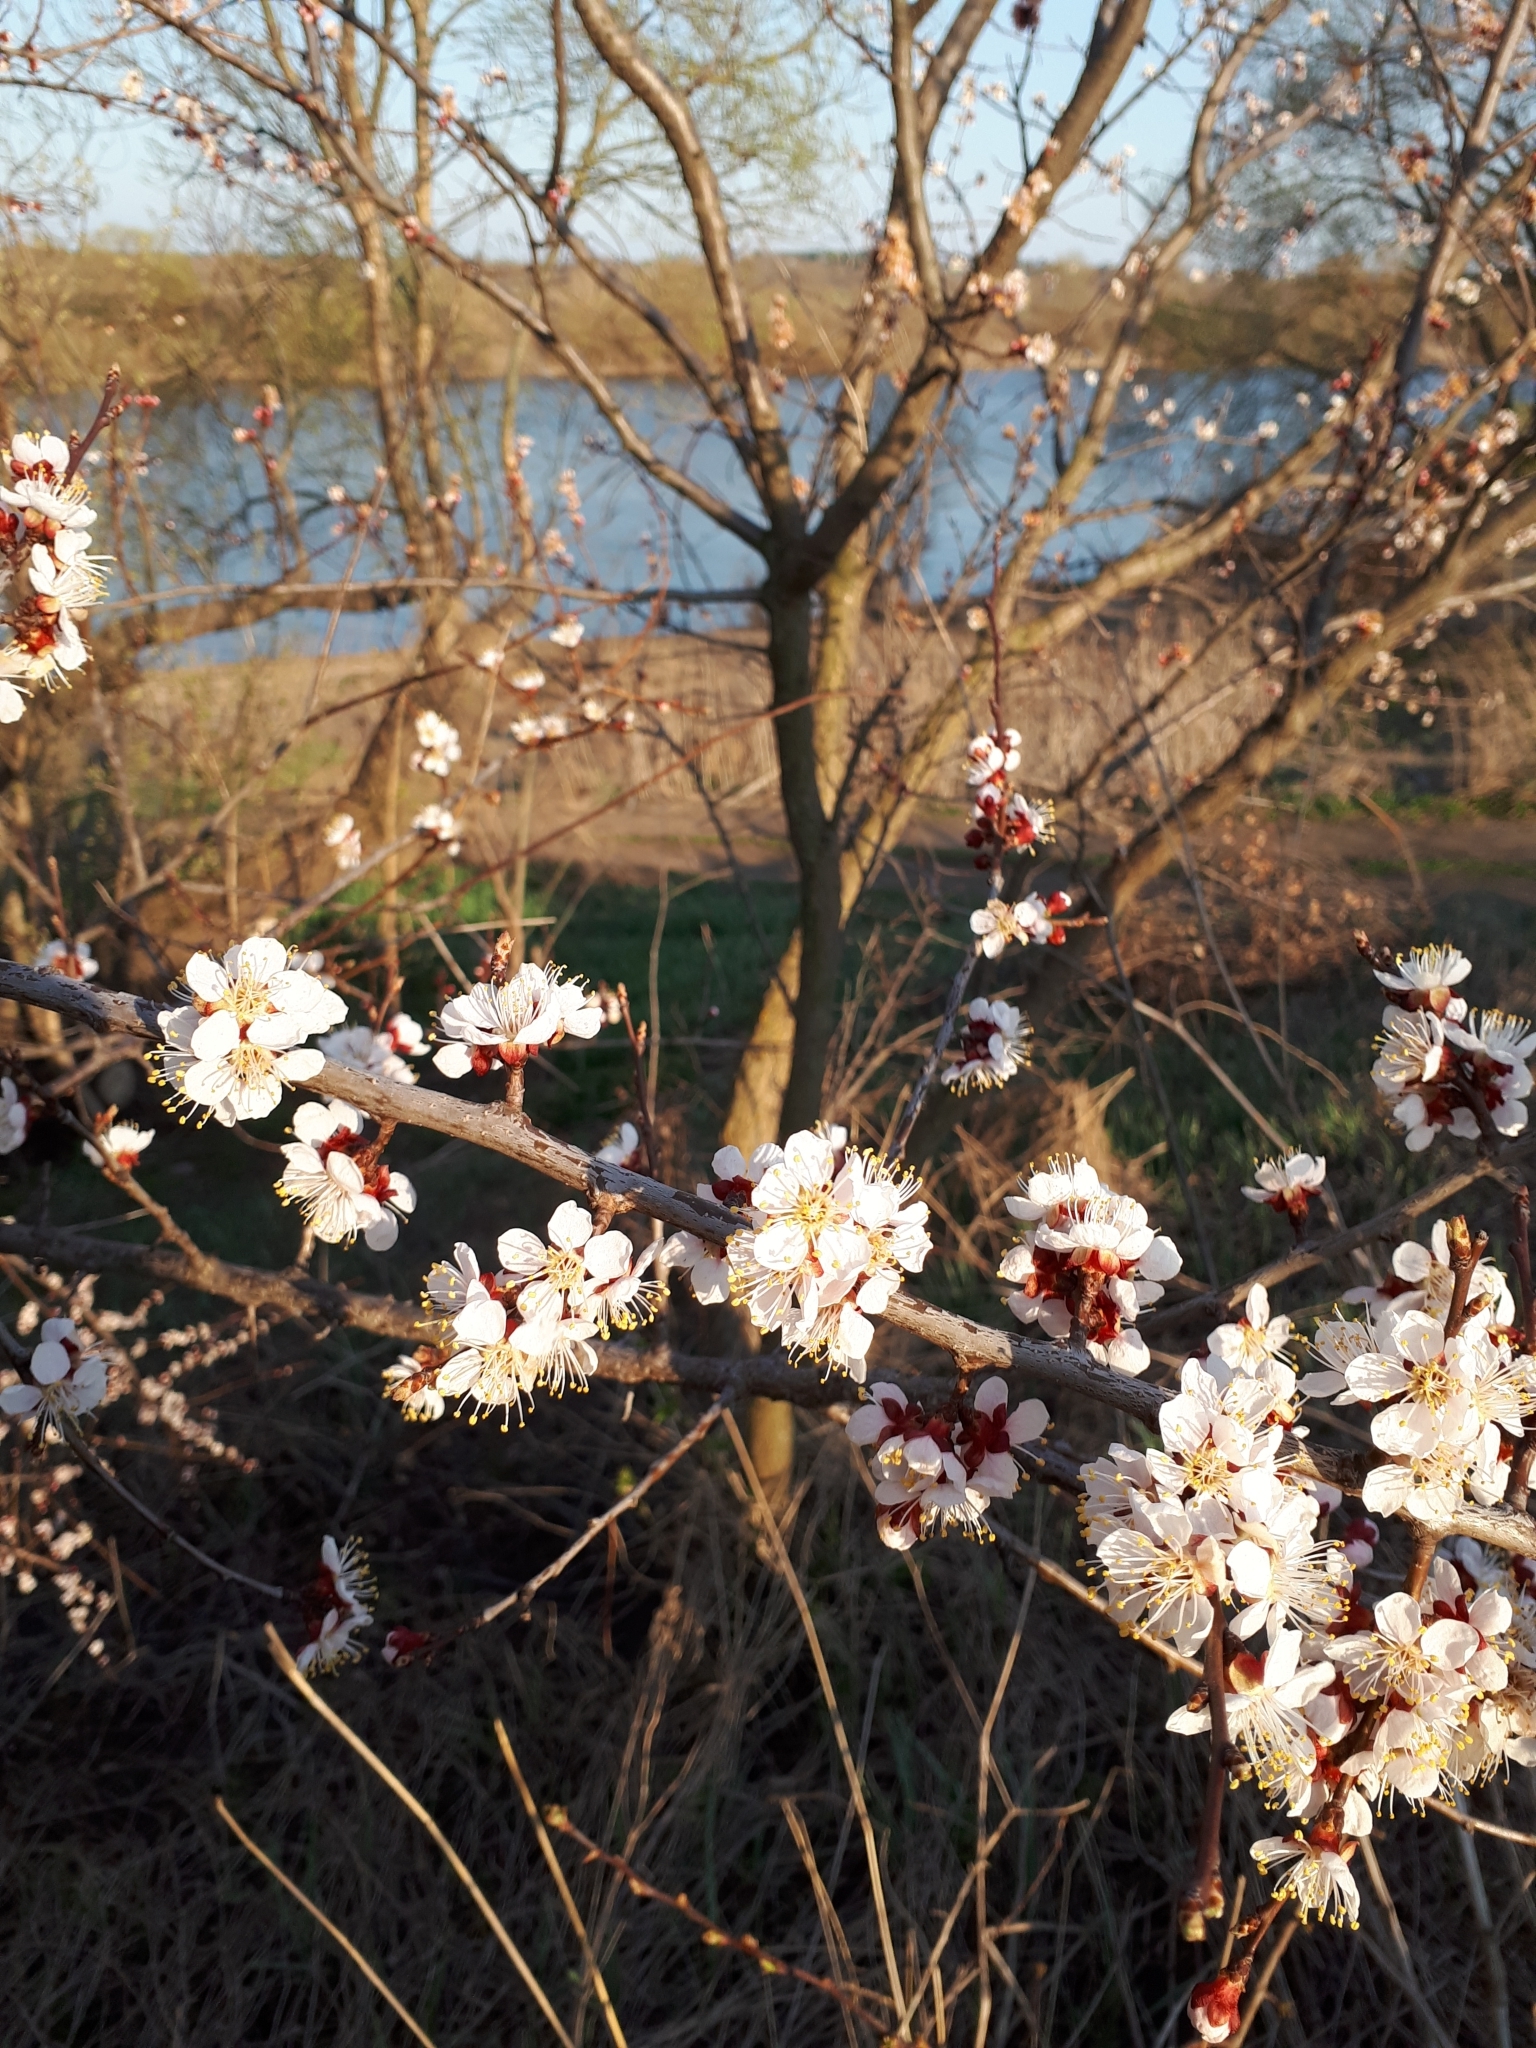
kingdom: Plantae
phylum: Tracheophyta
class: Magnoliopsida
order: Rosales
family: Rosaceae
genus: Prunus
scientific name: Prunus armeniaca
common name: Apricot
